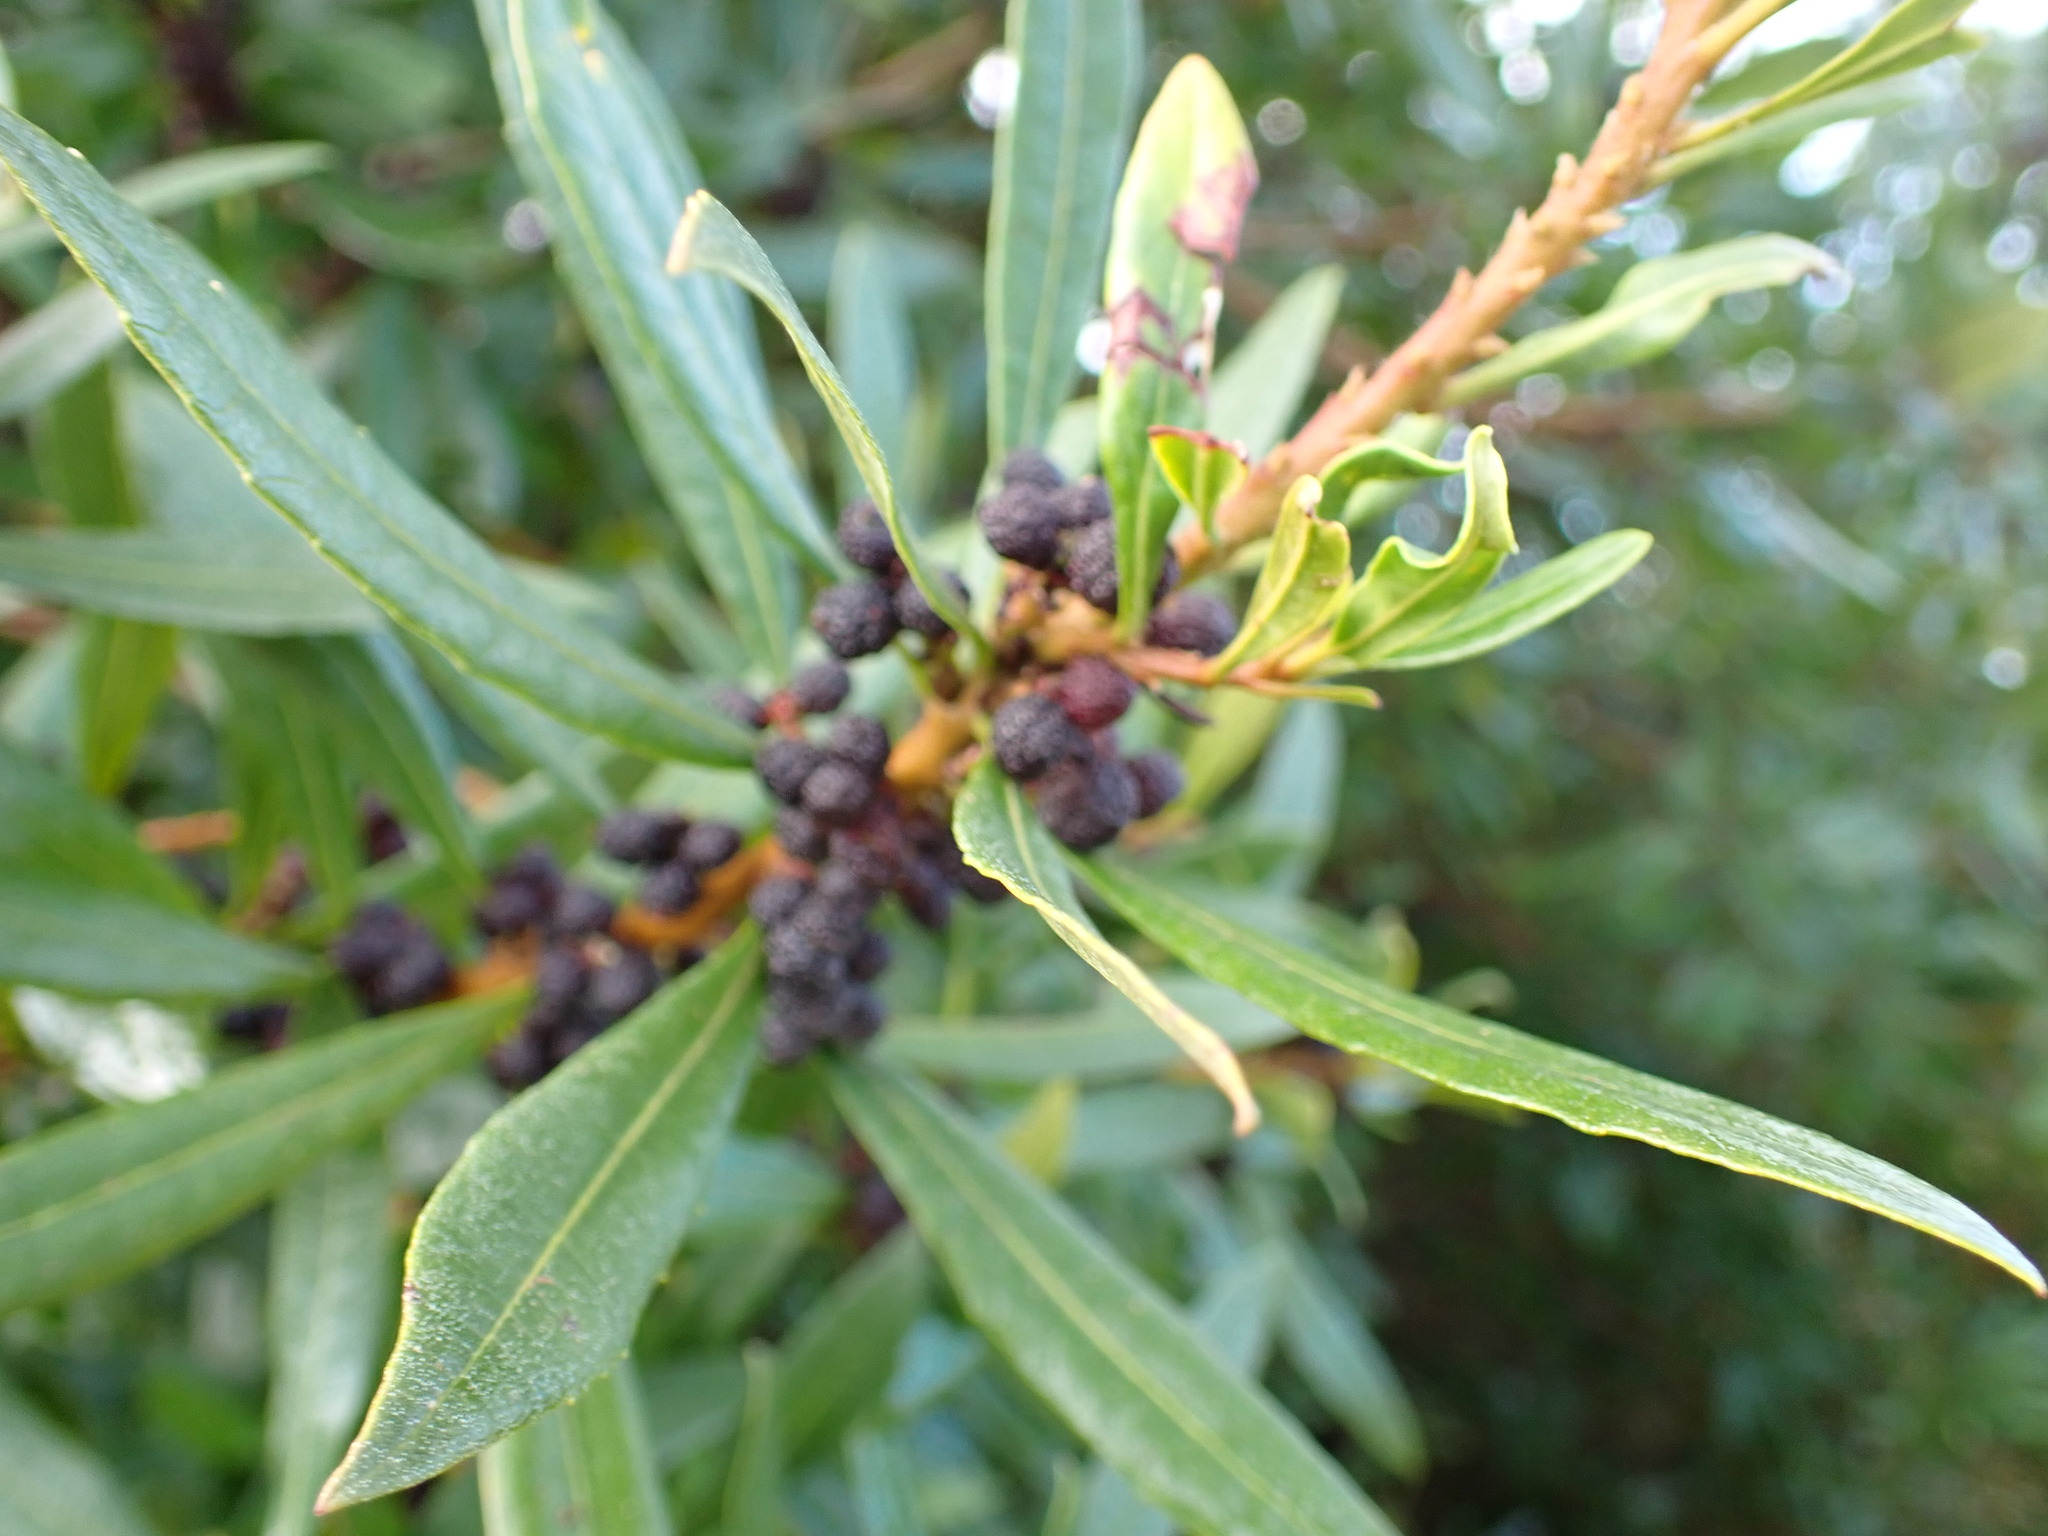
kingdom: Plantae
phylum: Tracheophyta
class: Magnoliopsida
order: Fagales
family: Myricaceae
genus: Morella
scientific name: Morella californica
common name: California wax-myrtle
